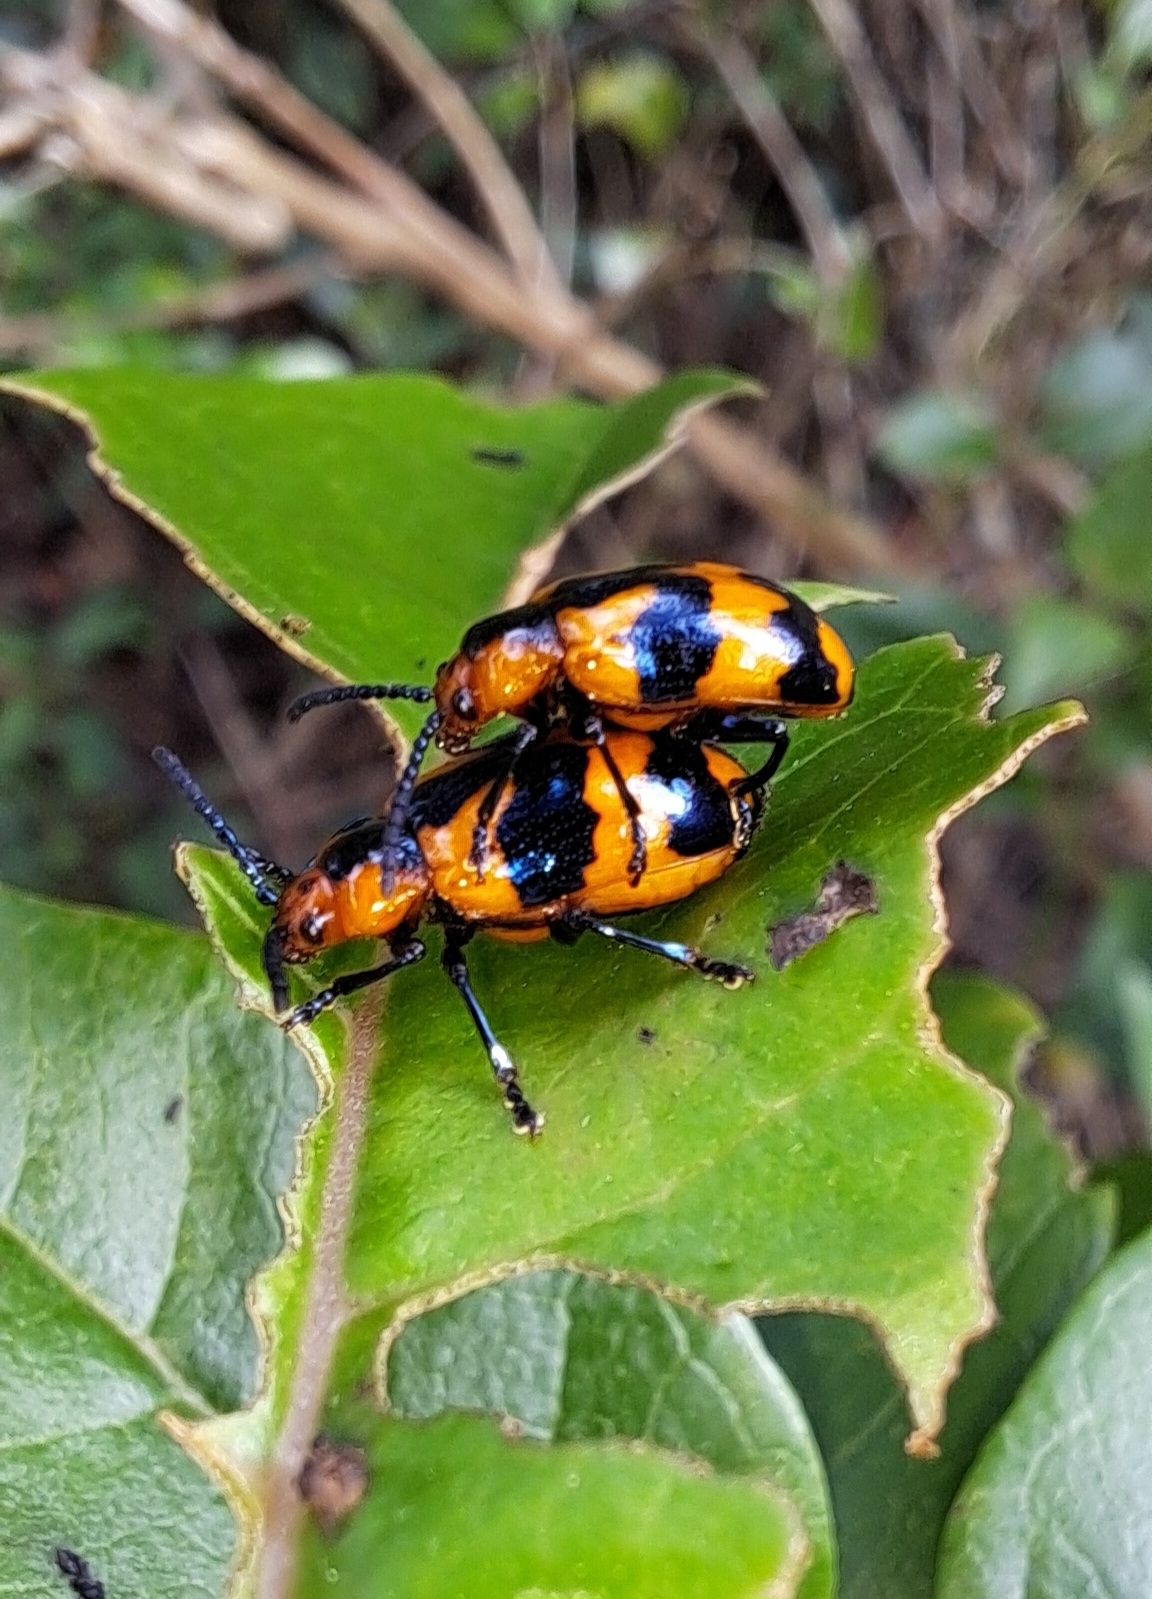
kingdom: Animalia
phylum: Arthropoda
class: Insecta
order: Coleoptera
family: Chrysomelidae
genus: Phyllocharis
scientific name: Phyllocharis
